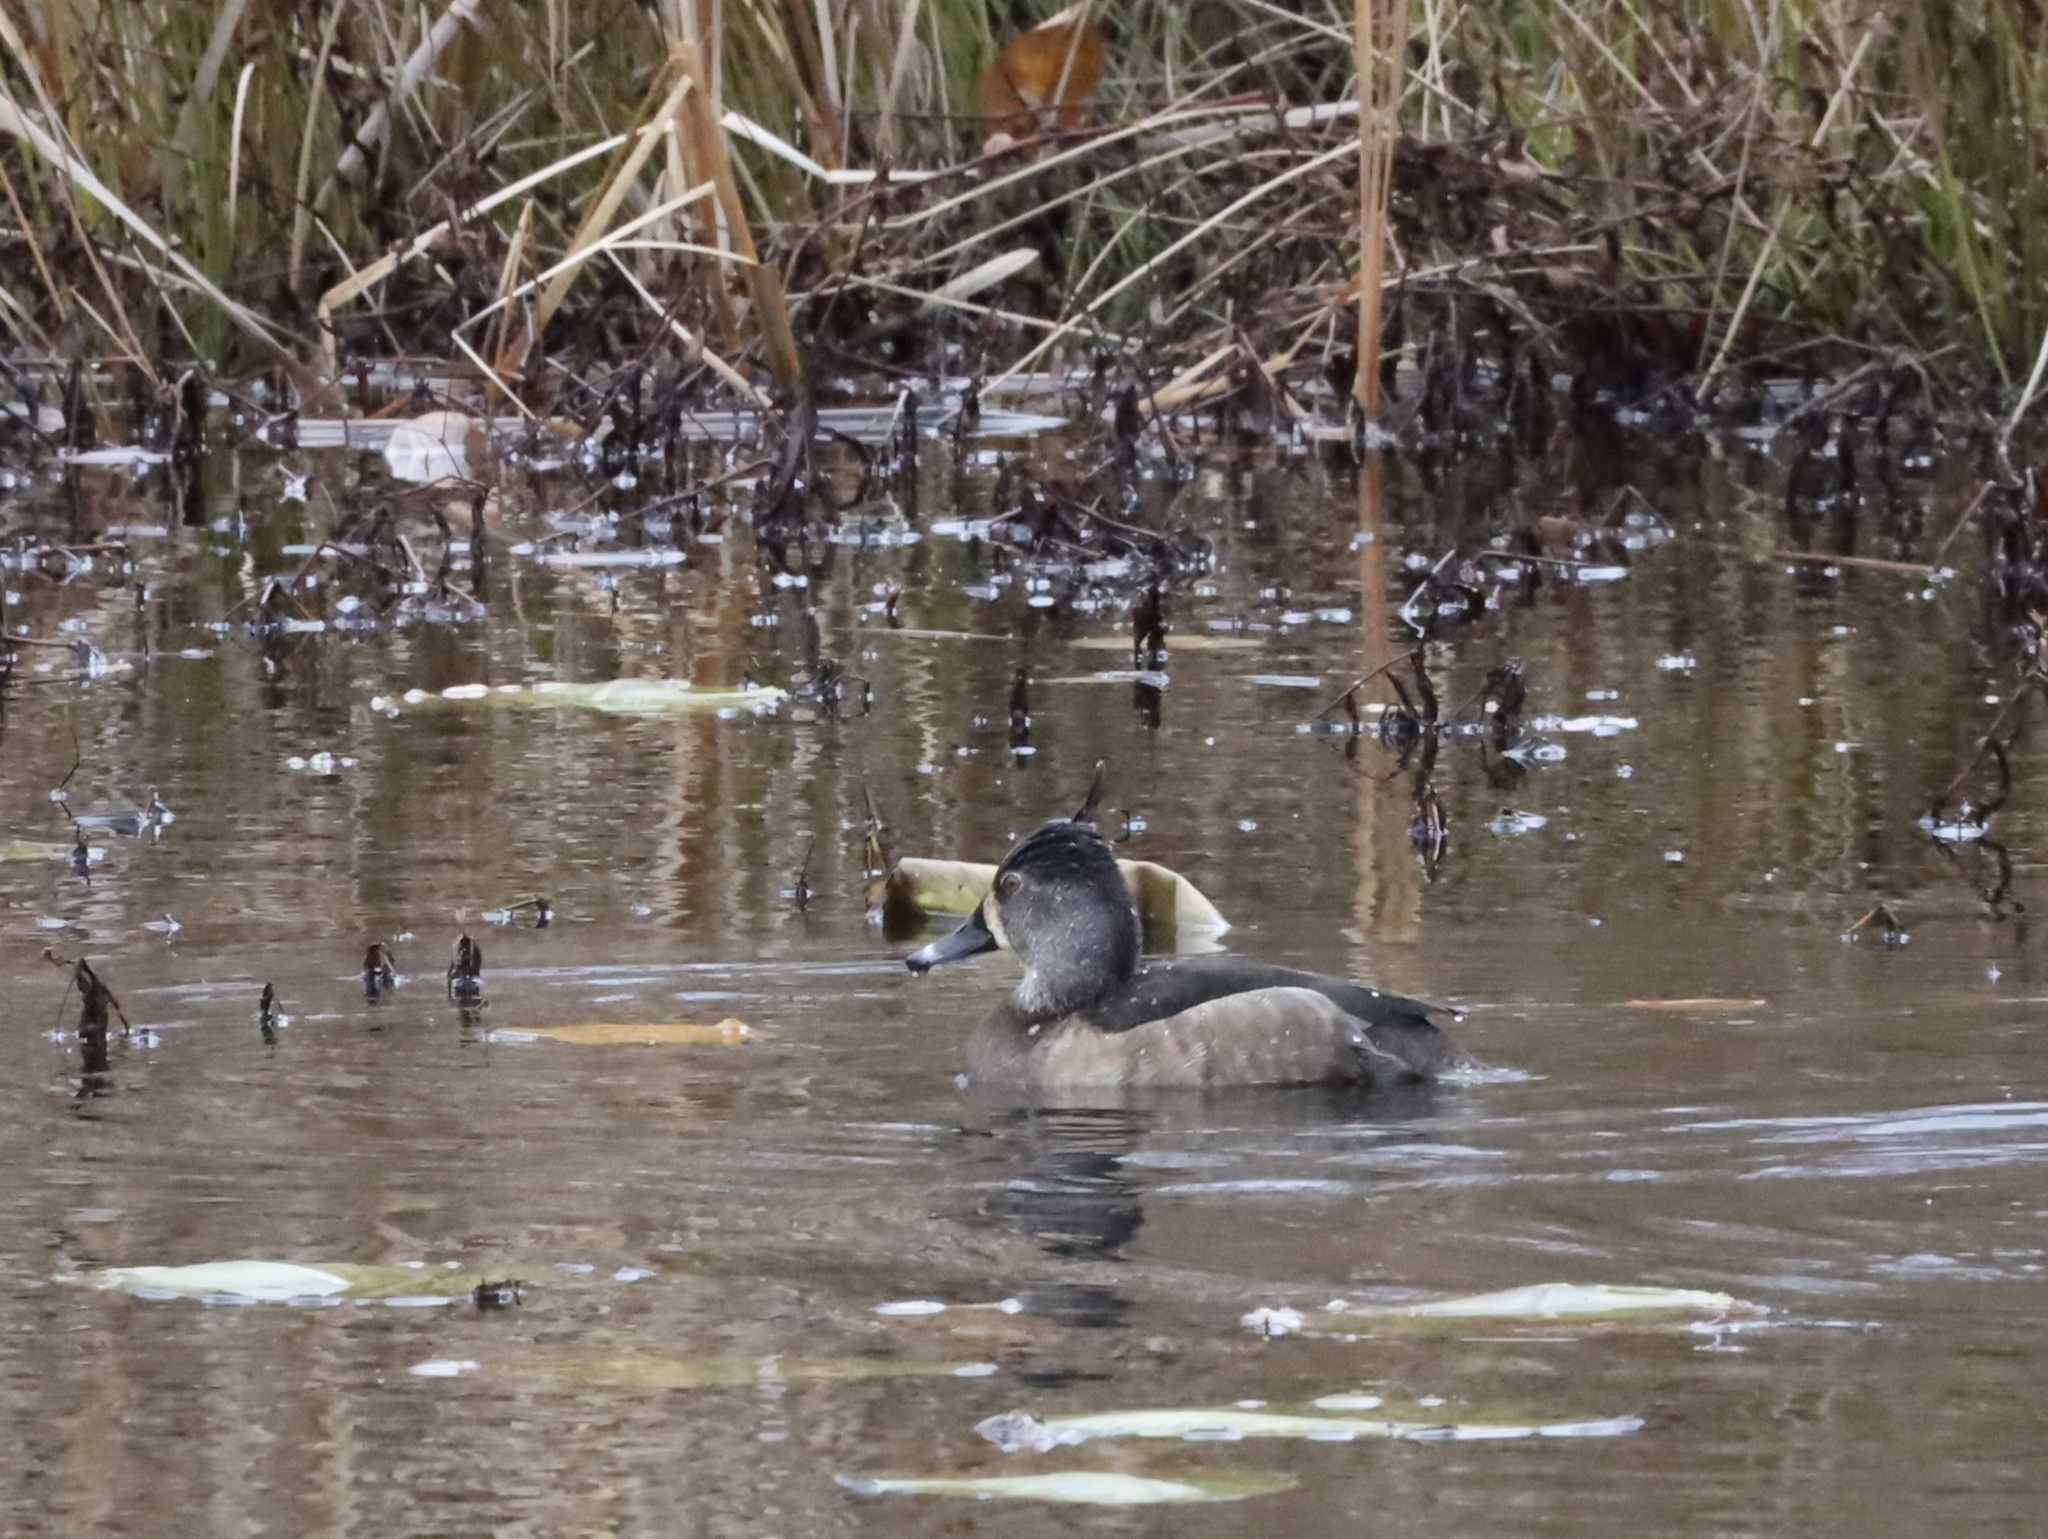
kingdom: Animalia
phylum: Chordata
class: Aves
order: Anseriformes
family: Anatidae
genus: Aythya
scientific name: Aythya collaris
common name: Ring-necked duck
